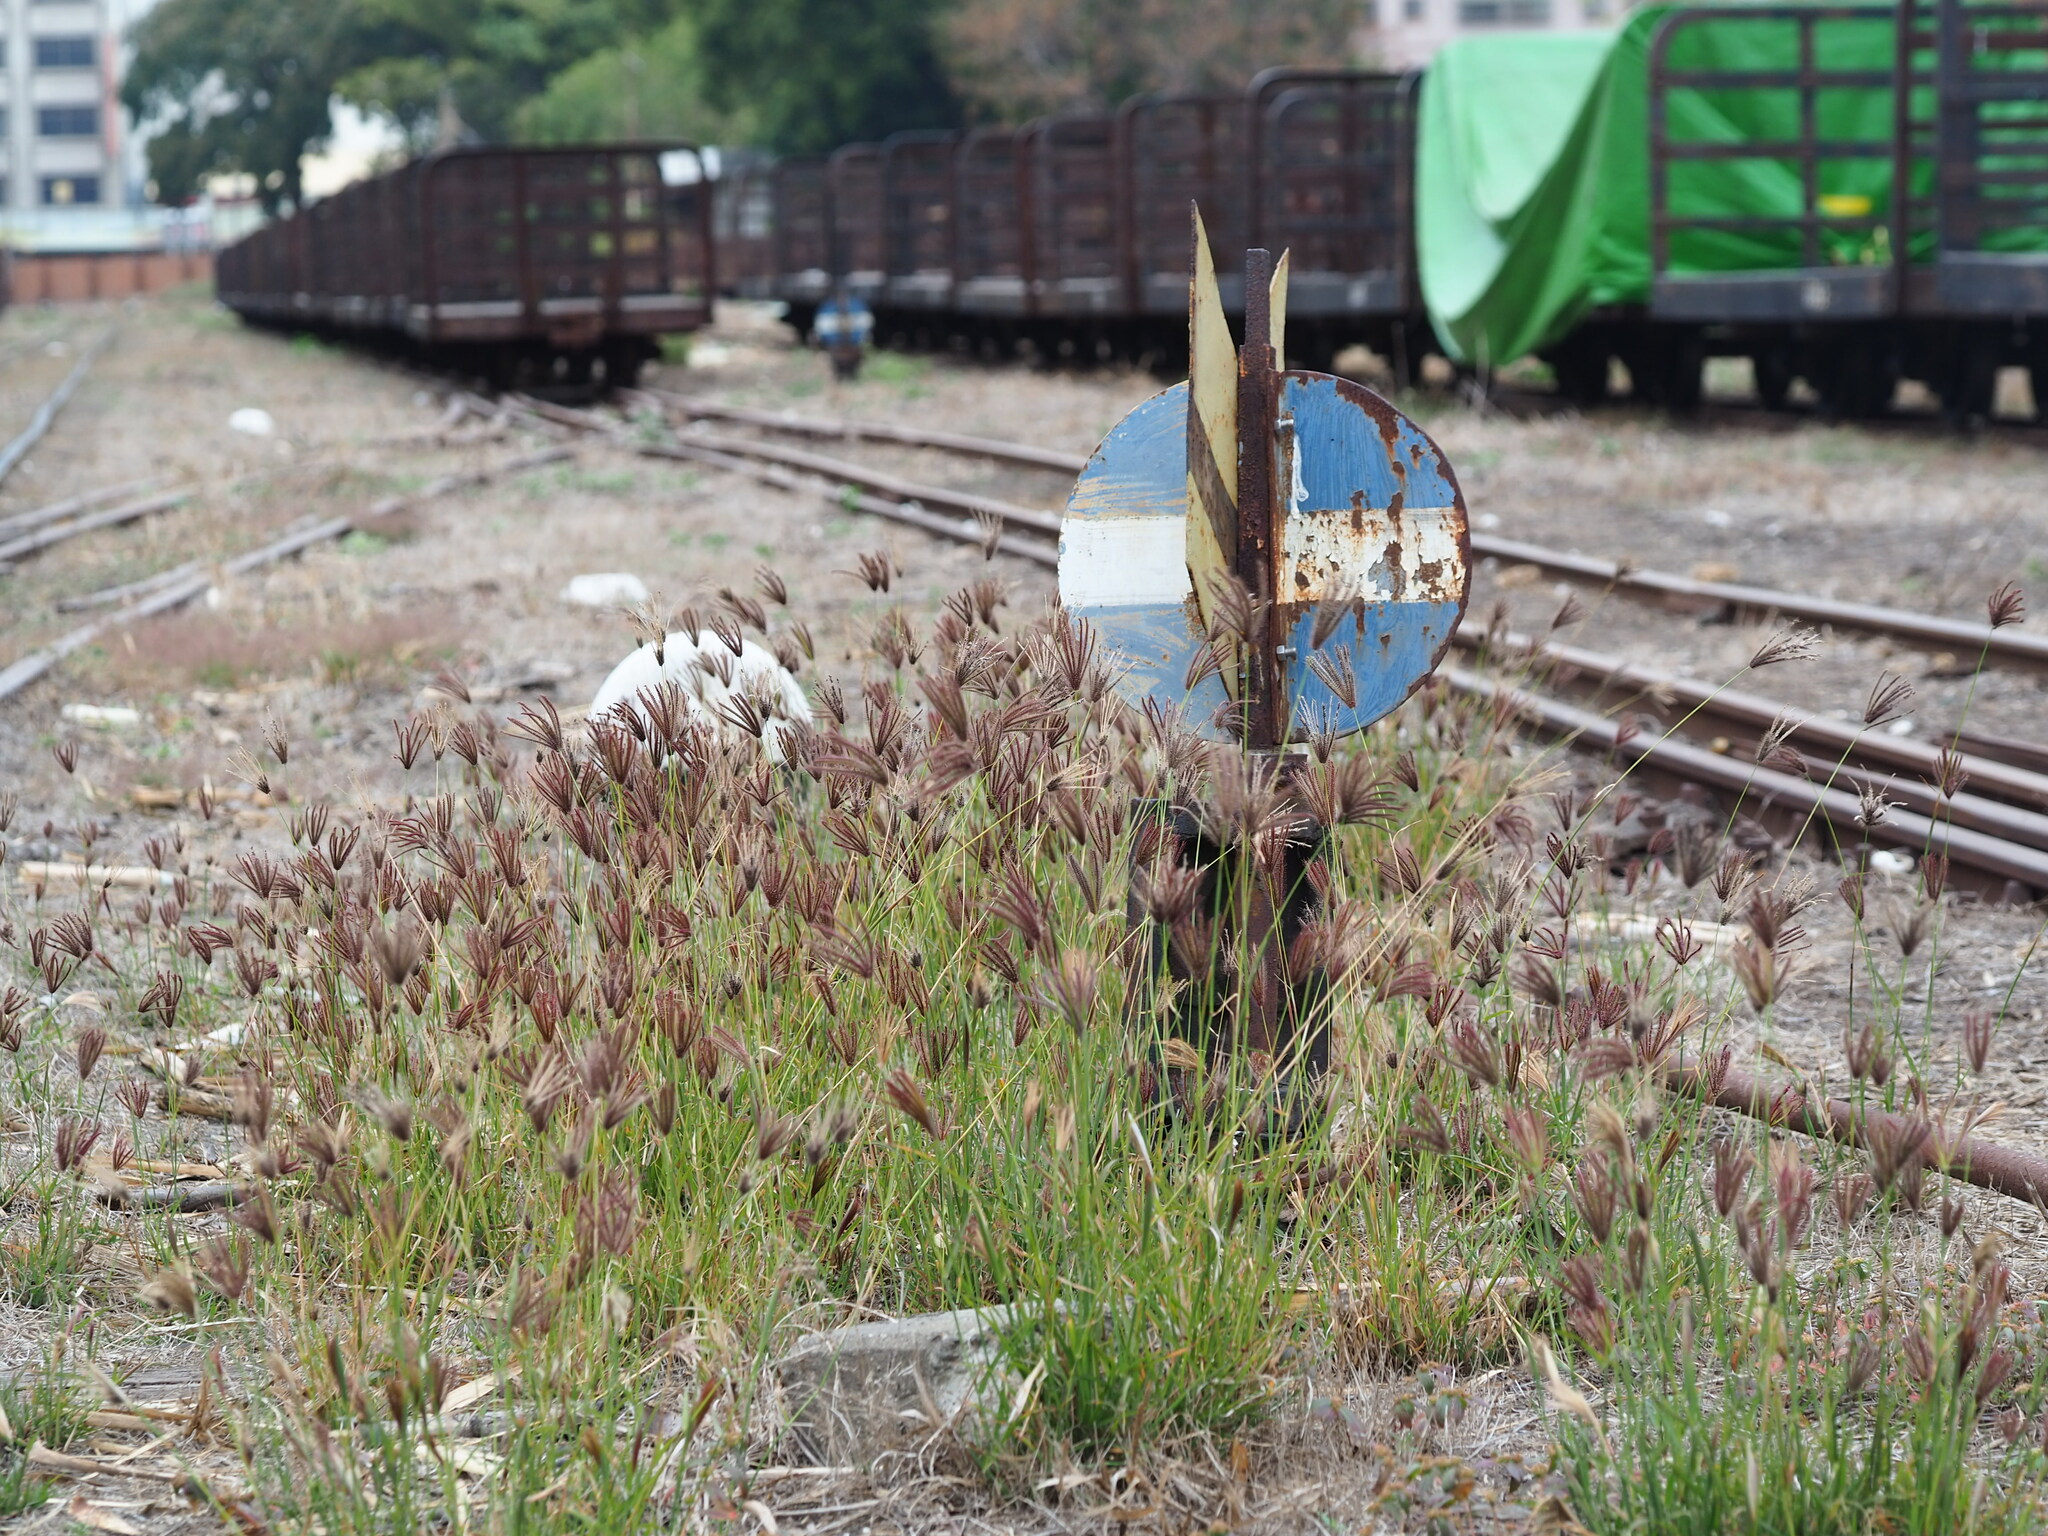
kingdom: Plantae
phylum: Tracheophyta
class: Liliopsida
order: Poales
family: Poaceae
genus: Chloris
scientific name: Chloris barbata
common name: Swollen fingergrass
